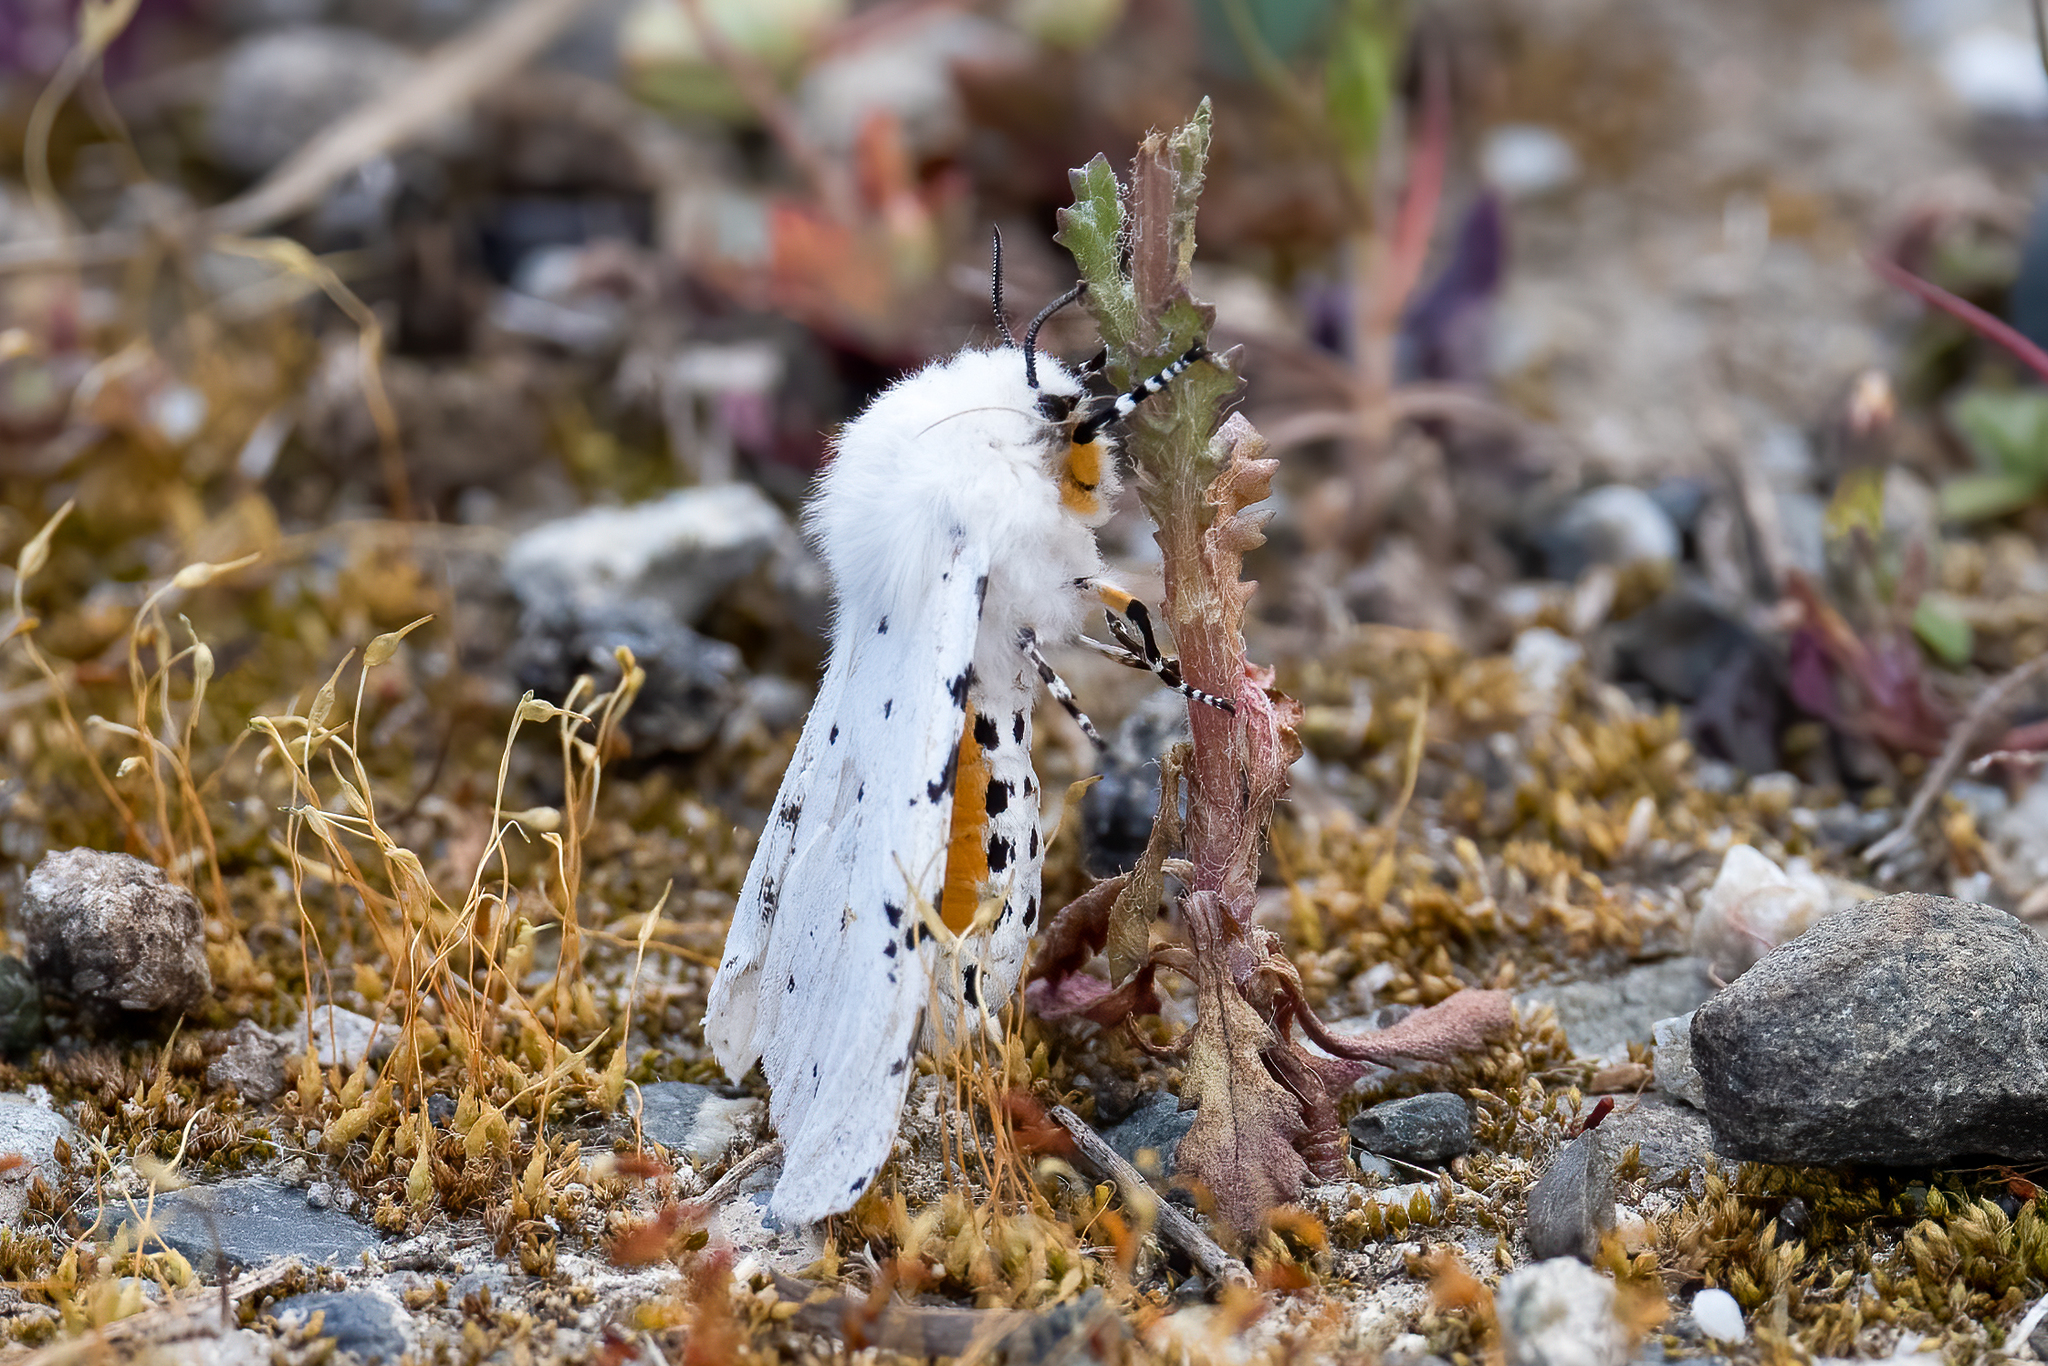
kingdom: Animalia
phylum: Arthropoda
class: Insecta
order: Lepidoptera
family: Erebidae
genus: Estigmene
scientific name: Estigmene acrea
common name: Salt marsh moth
